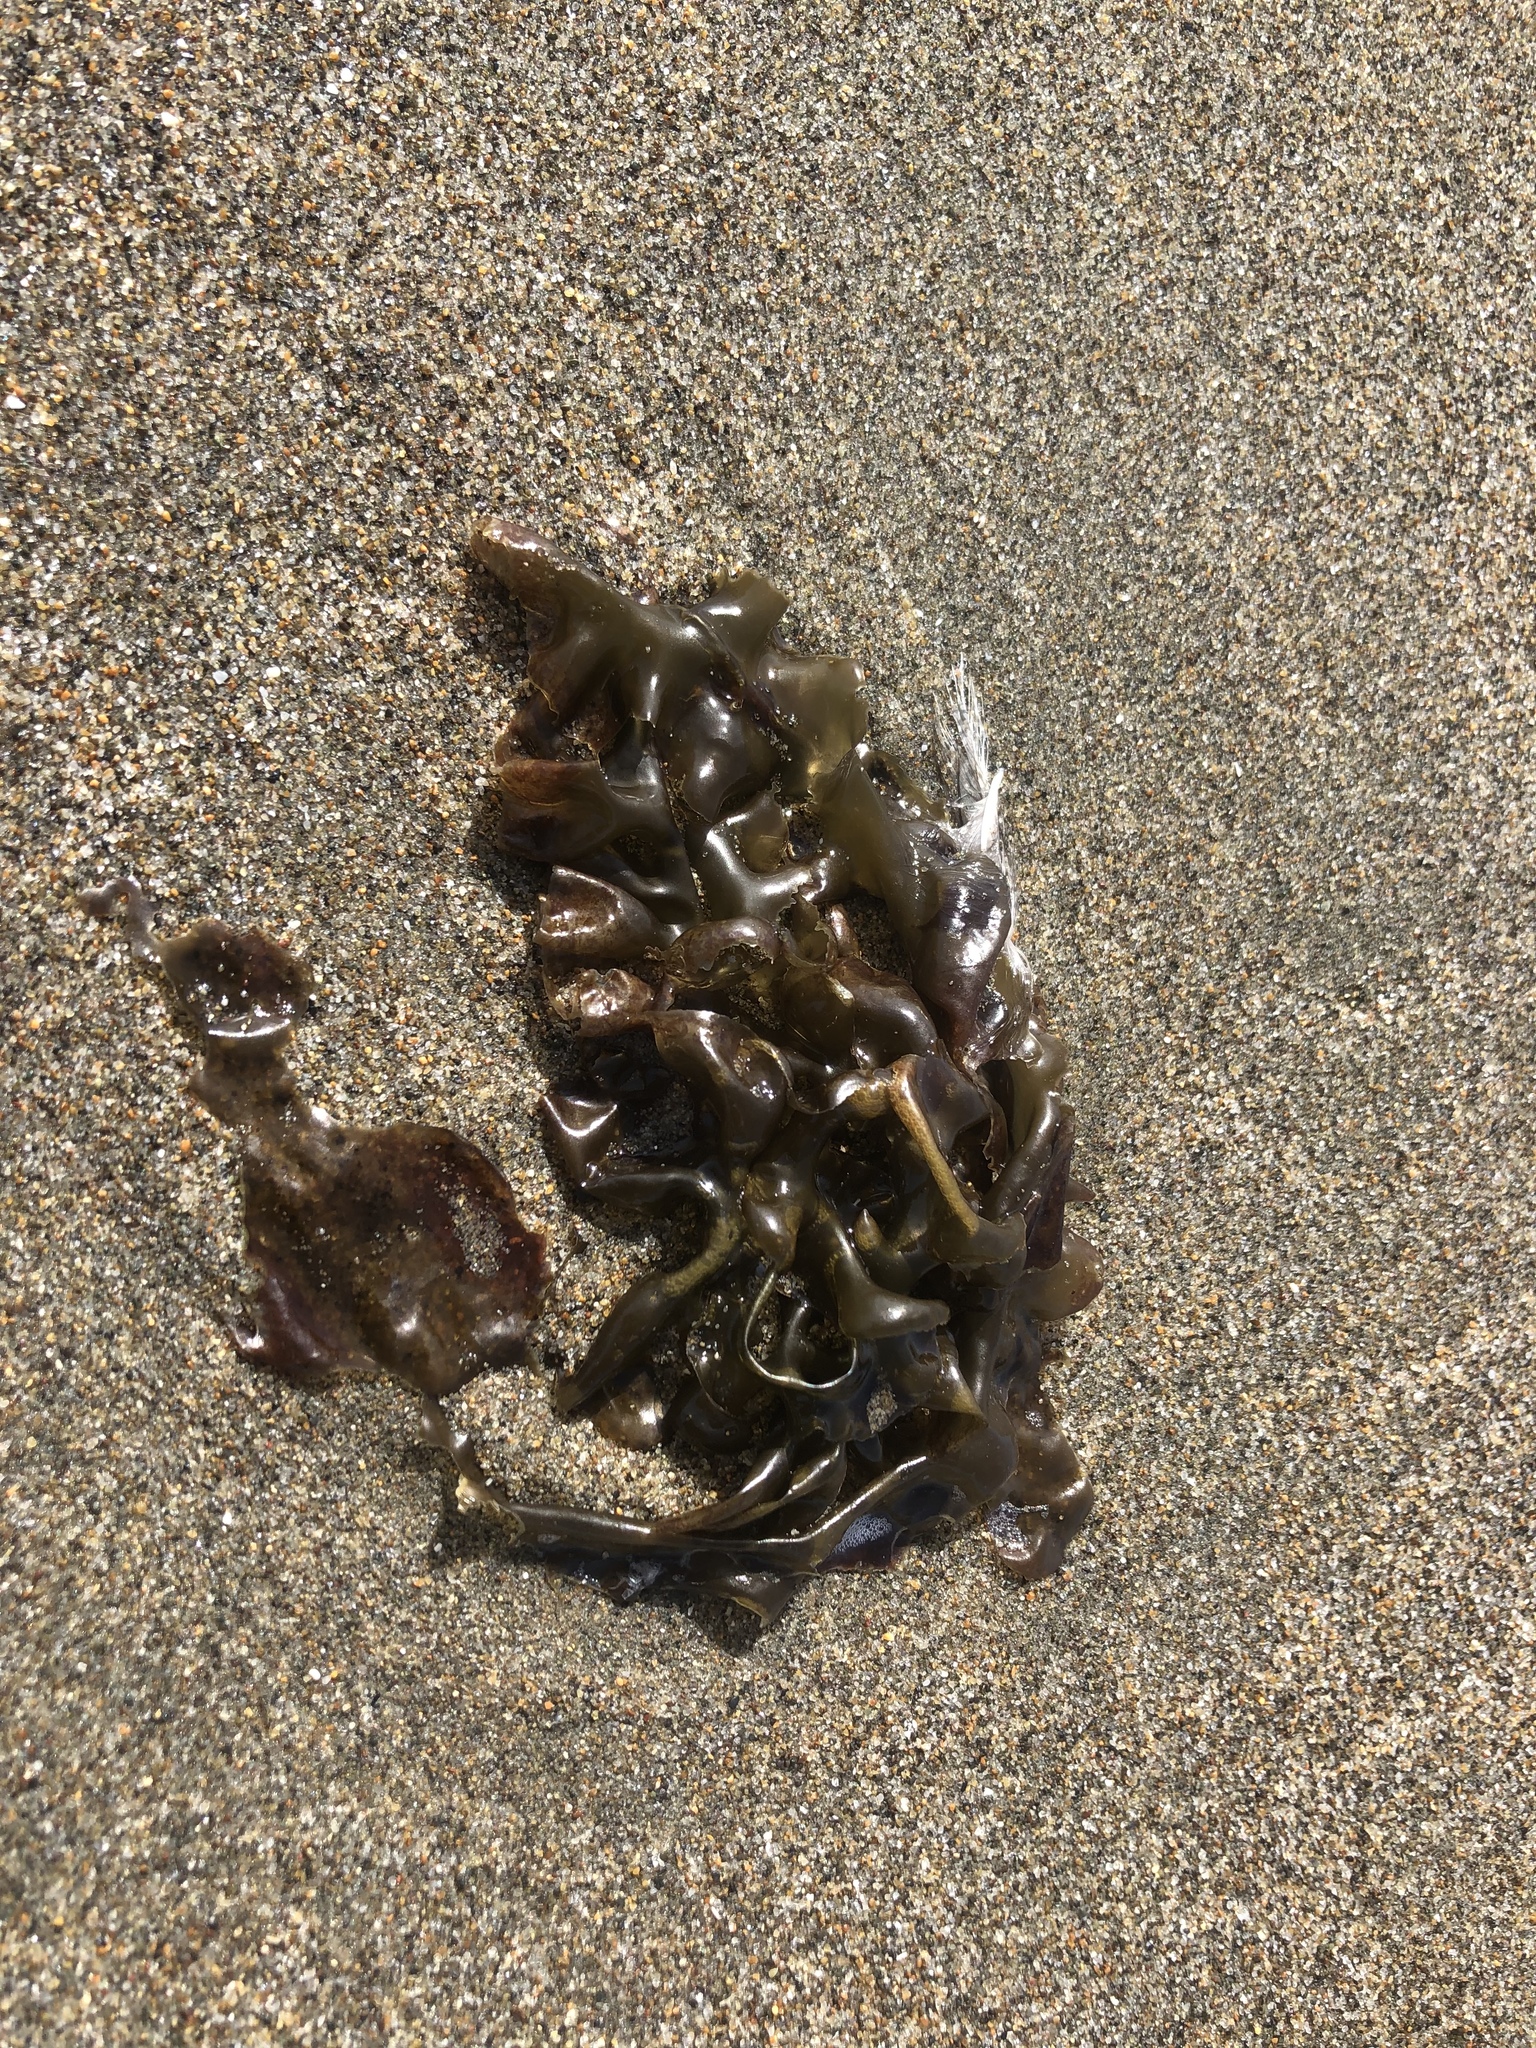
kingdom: Plantae
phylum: Rhodophyta
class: Bangiophyceae
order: Bangiales
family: Bangiaceae
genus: Pyropia
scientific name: Pyropia
